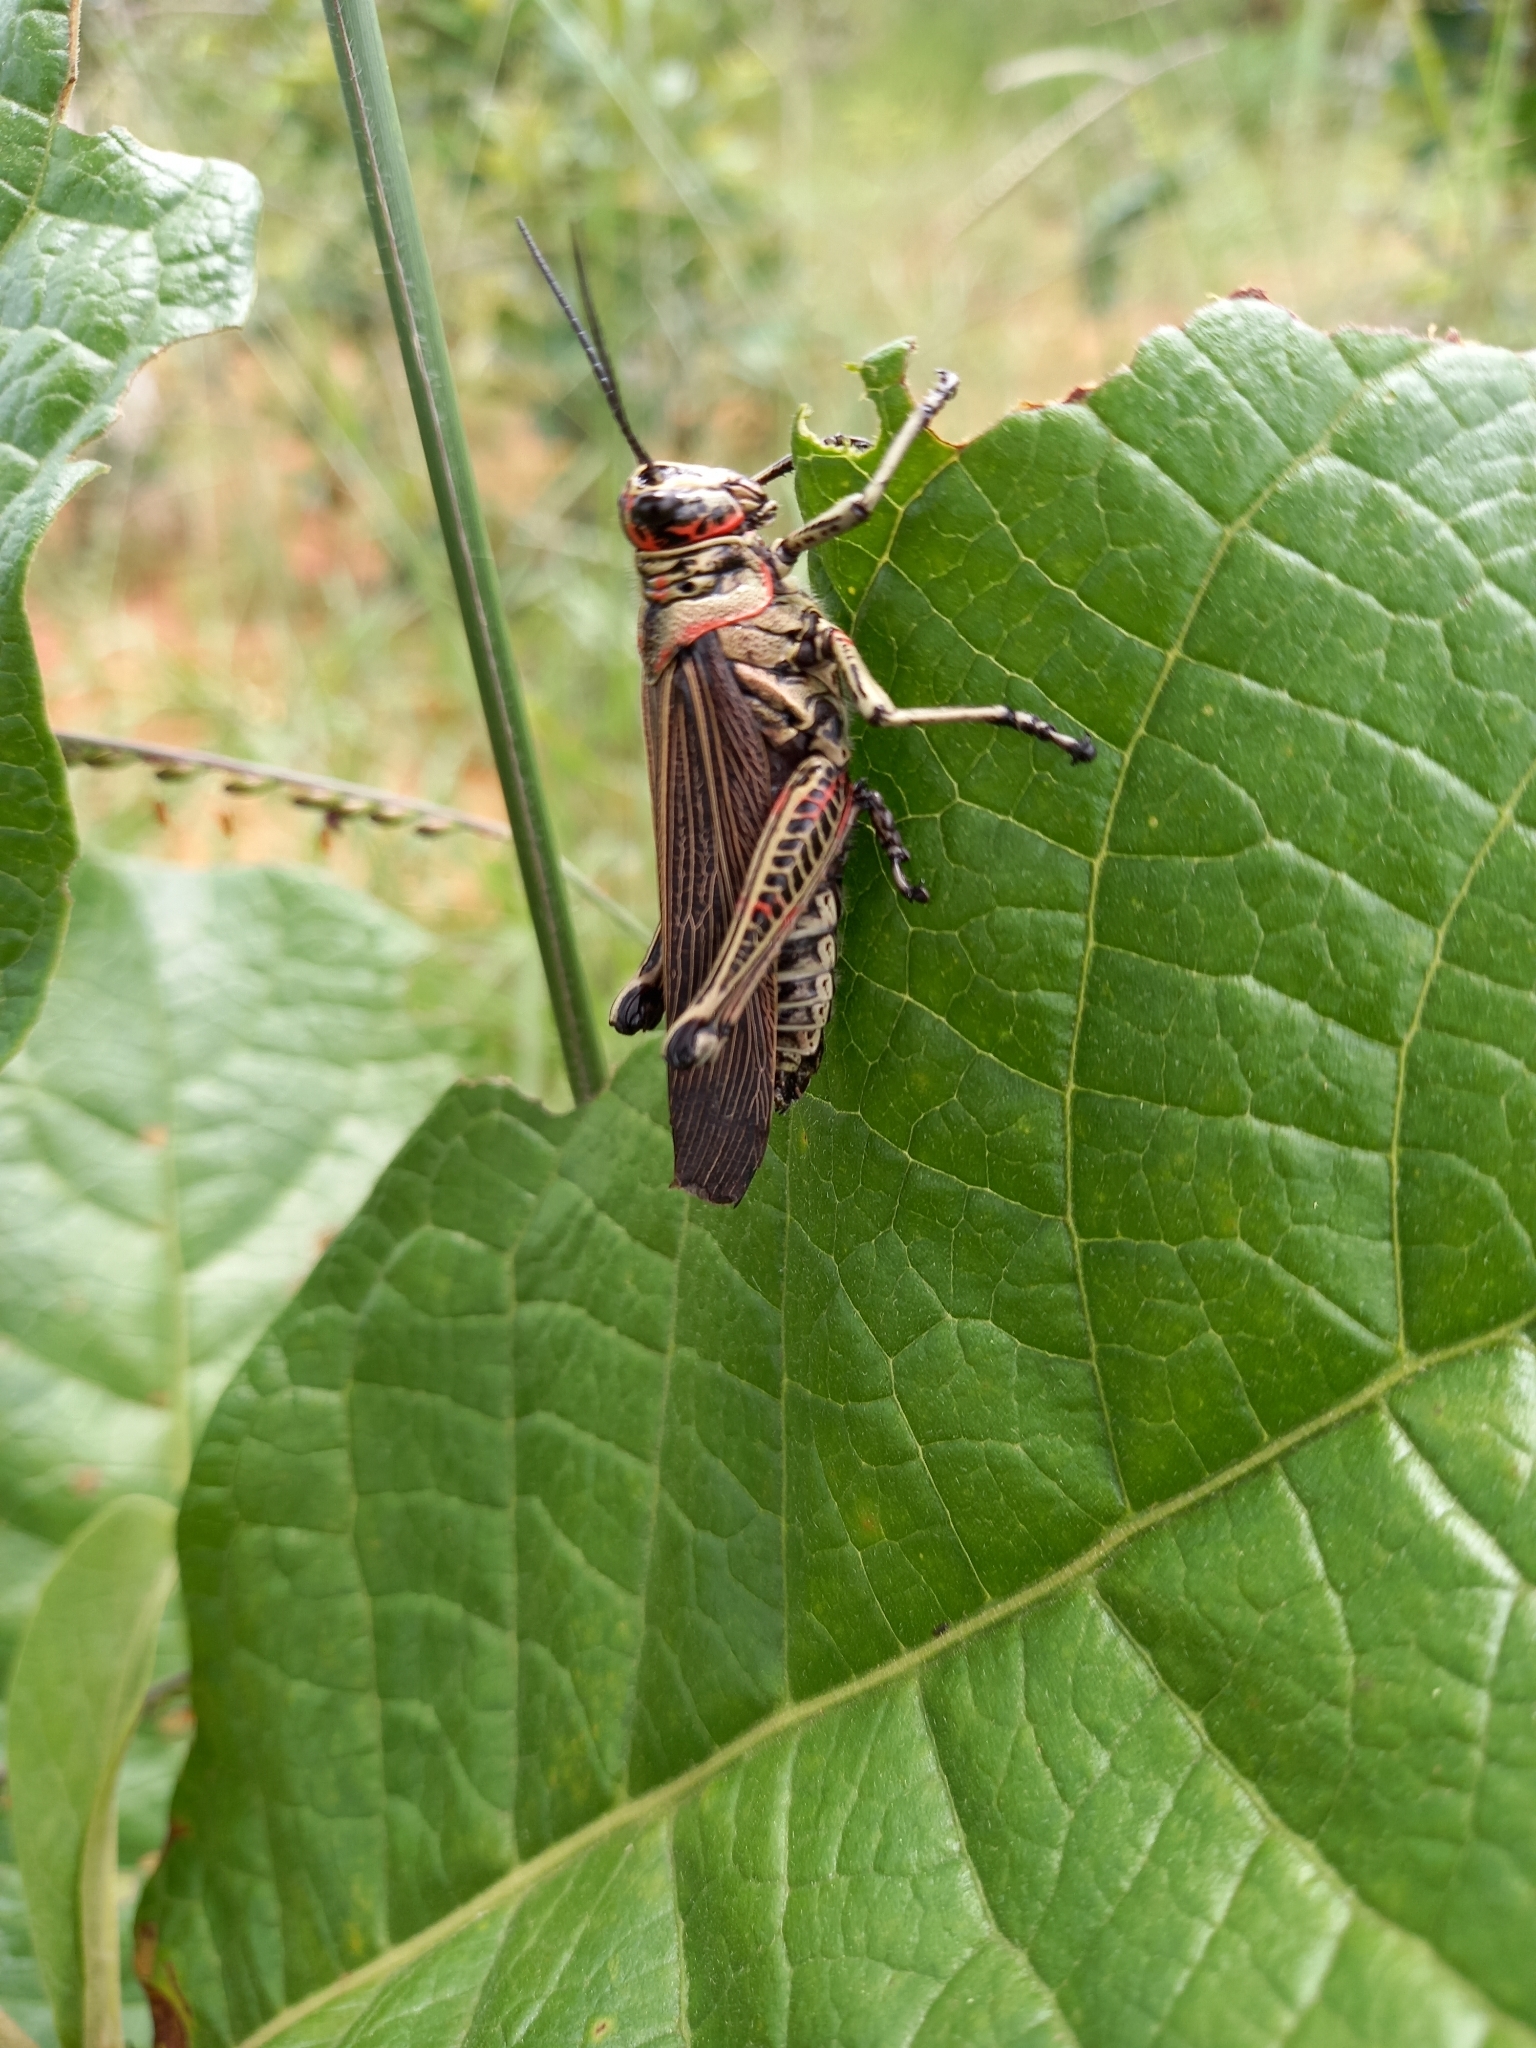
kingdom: Animalia
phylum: Arthropoda
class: Insecta
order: Orthoptera
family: Romaleidae
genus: Chromacris
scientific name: Chromacris nuptialis
